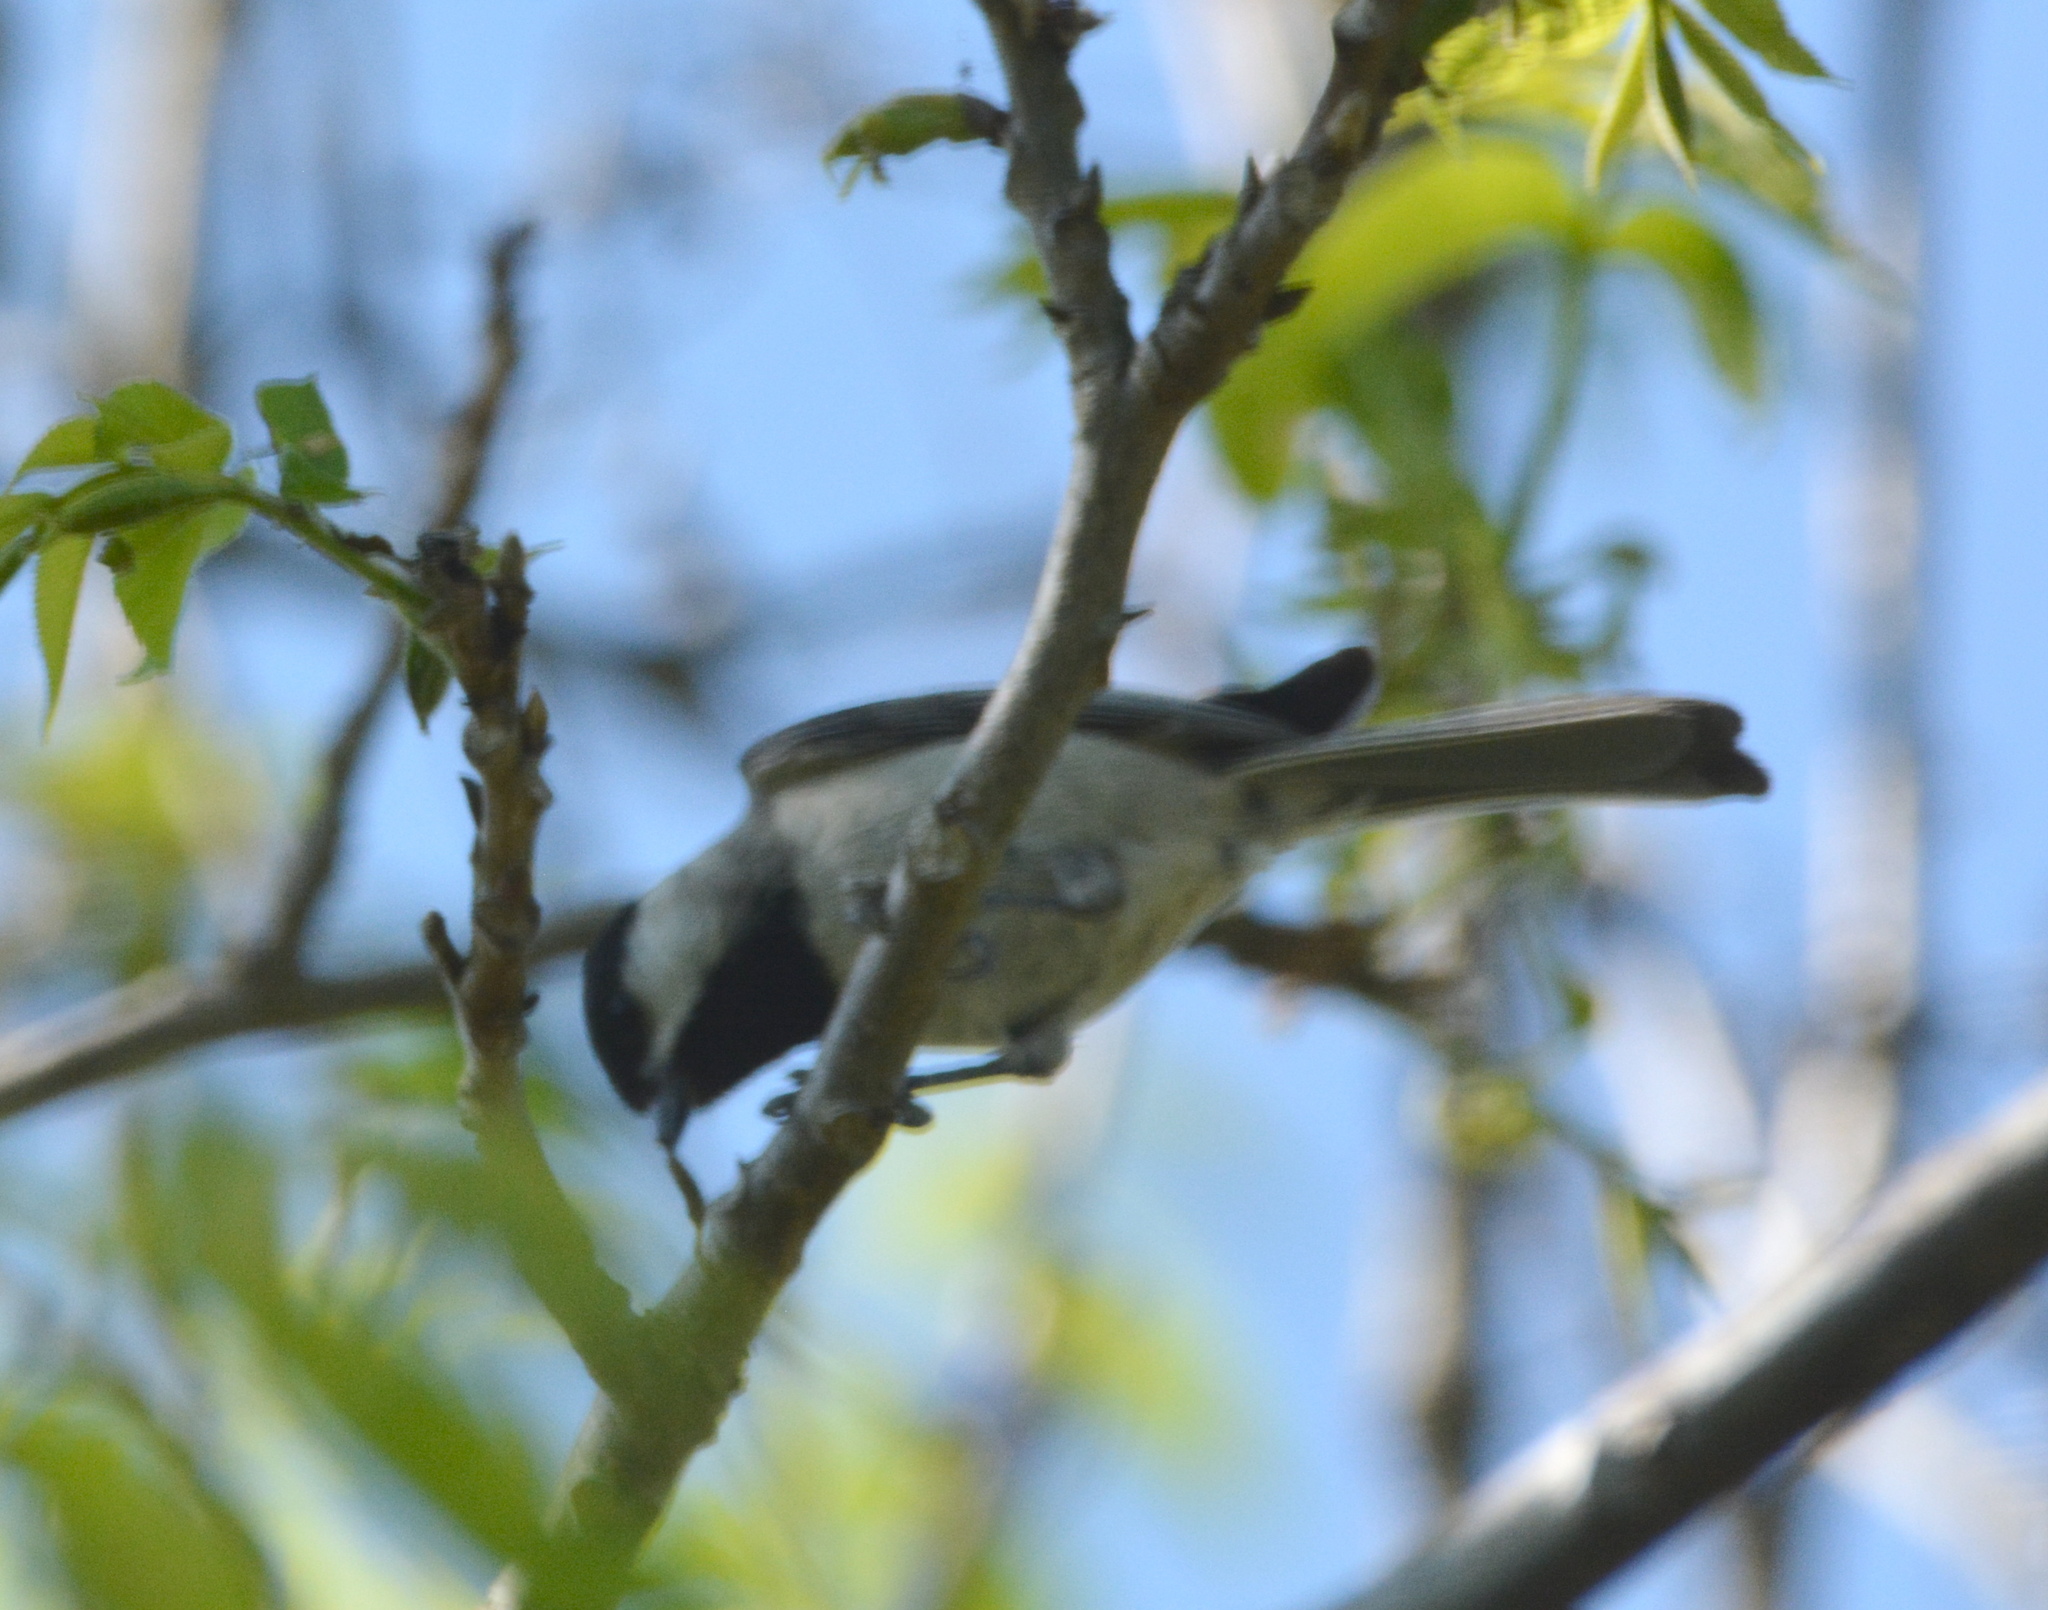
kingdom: Animalia
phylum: Chordata
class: Aves
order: Passeriformes
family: Paridae
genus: Poecile
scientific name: Poecile carolinensis
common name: Carolina chickadee
